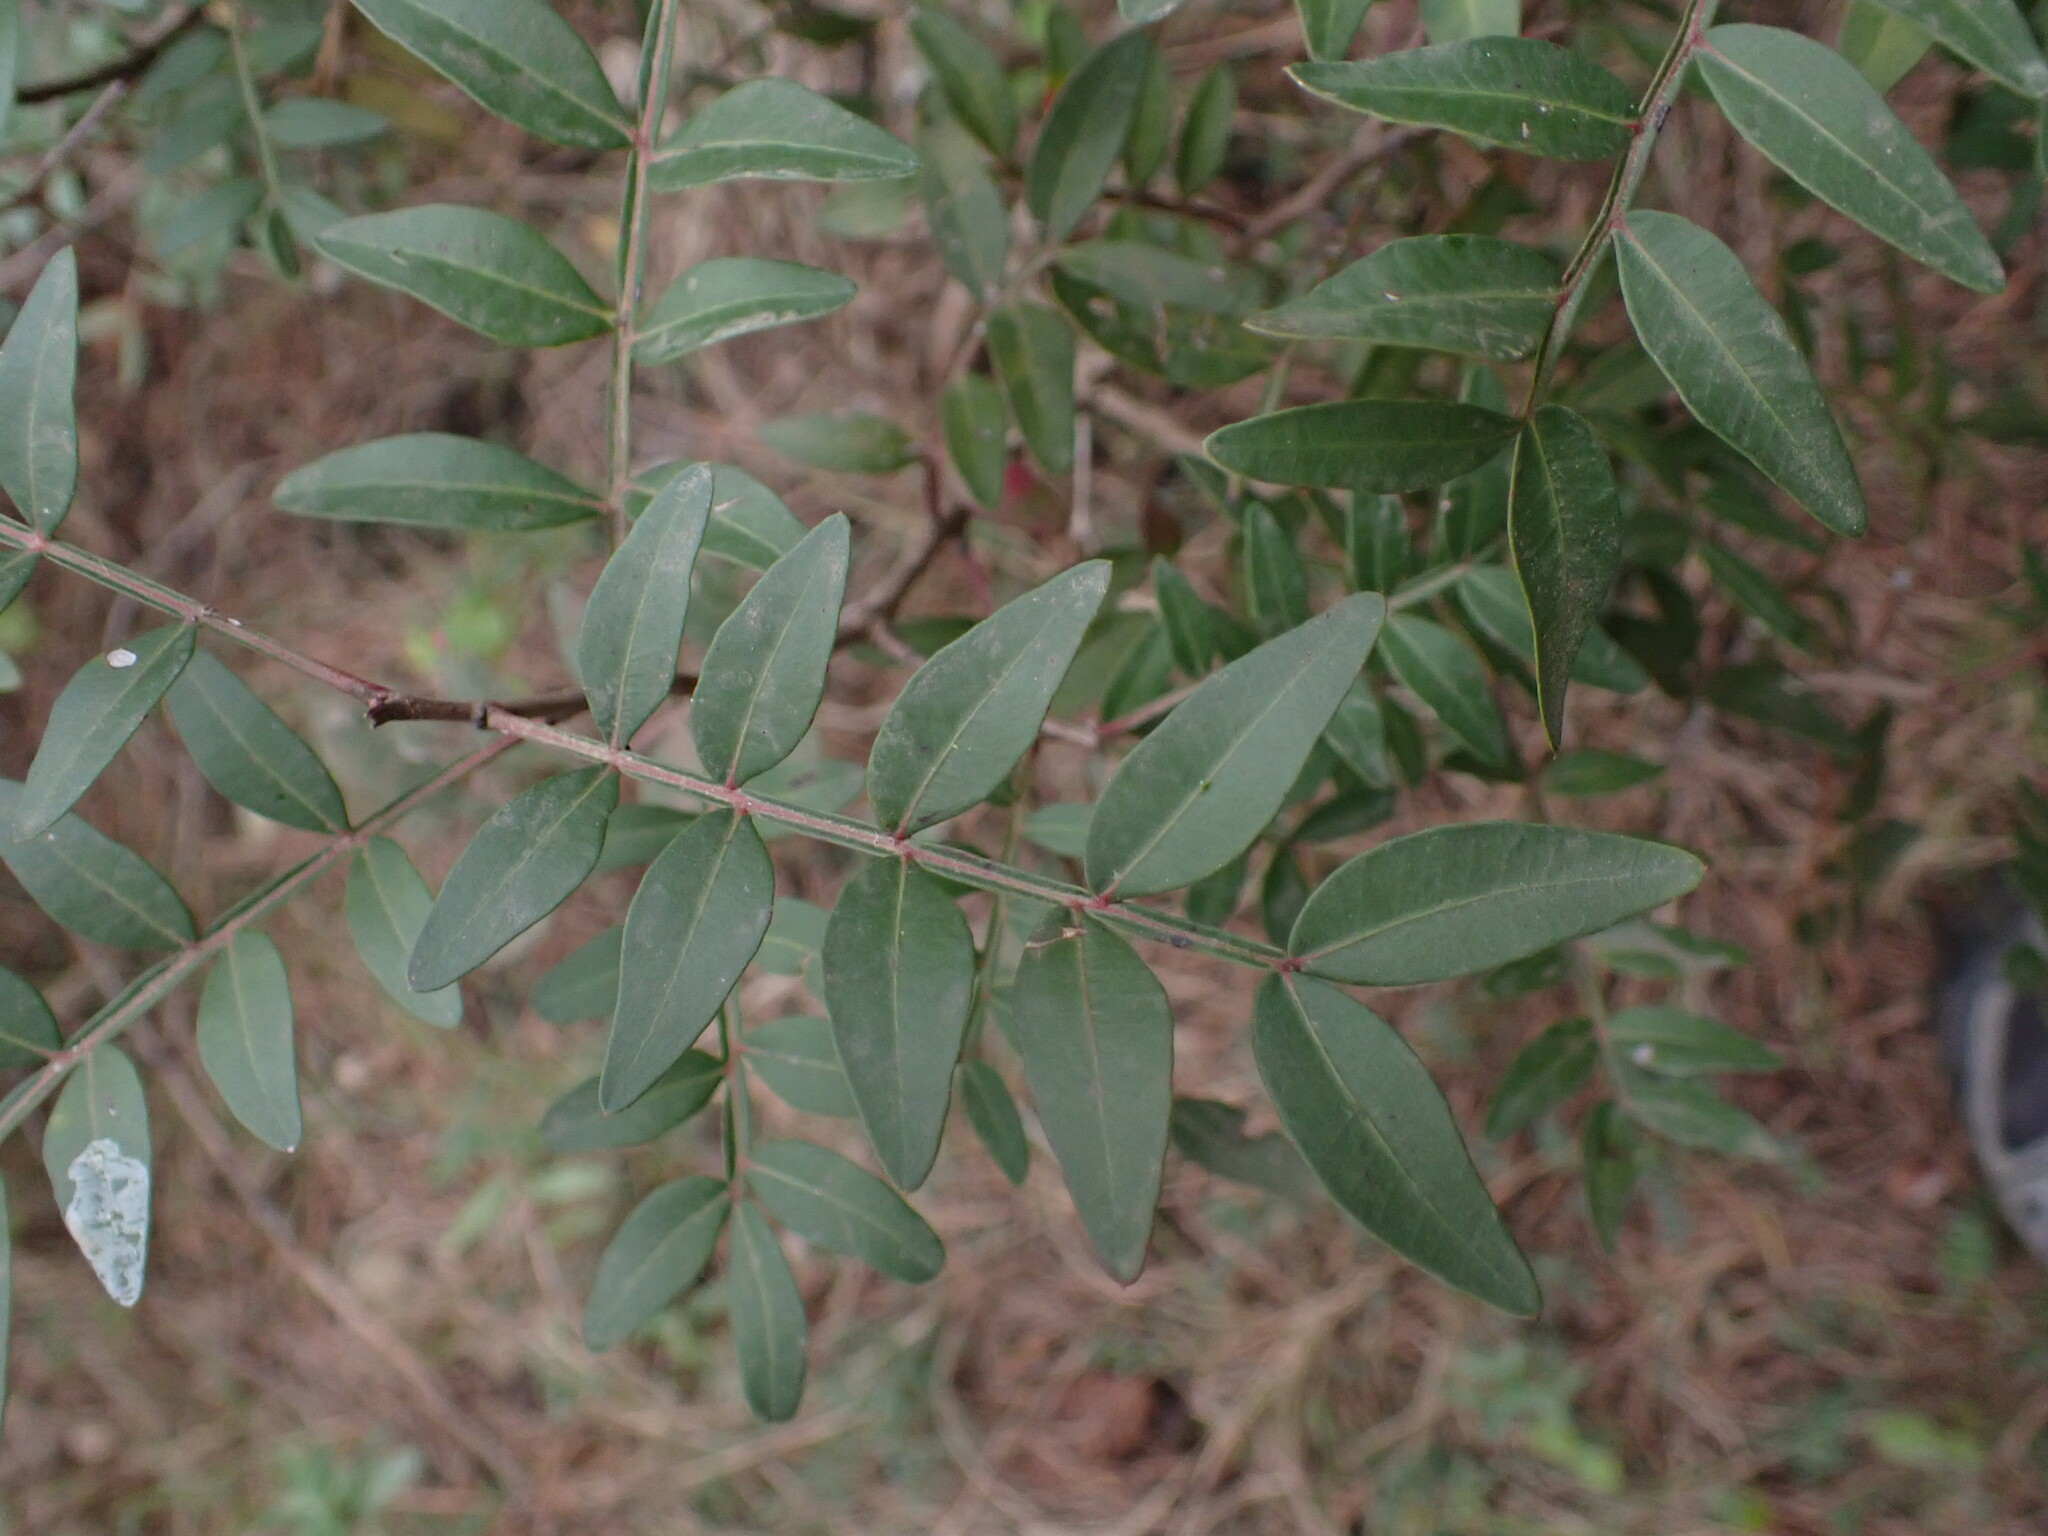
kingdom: Plantae
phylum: Tracheophyta
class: Magnoliopsida
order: Sapindales
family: Anacardiaceae
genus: Pistacia
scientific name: Pistacia lentiscus
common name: Lentisk
